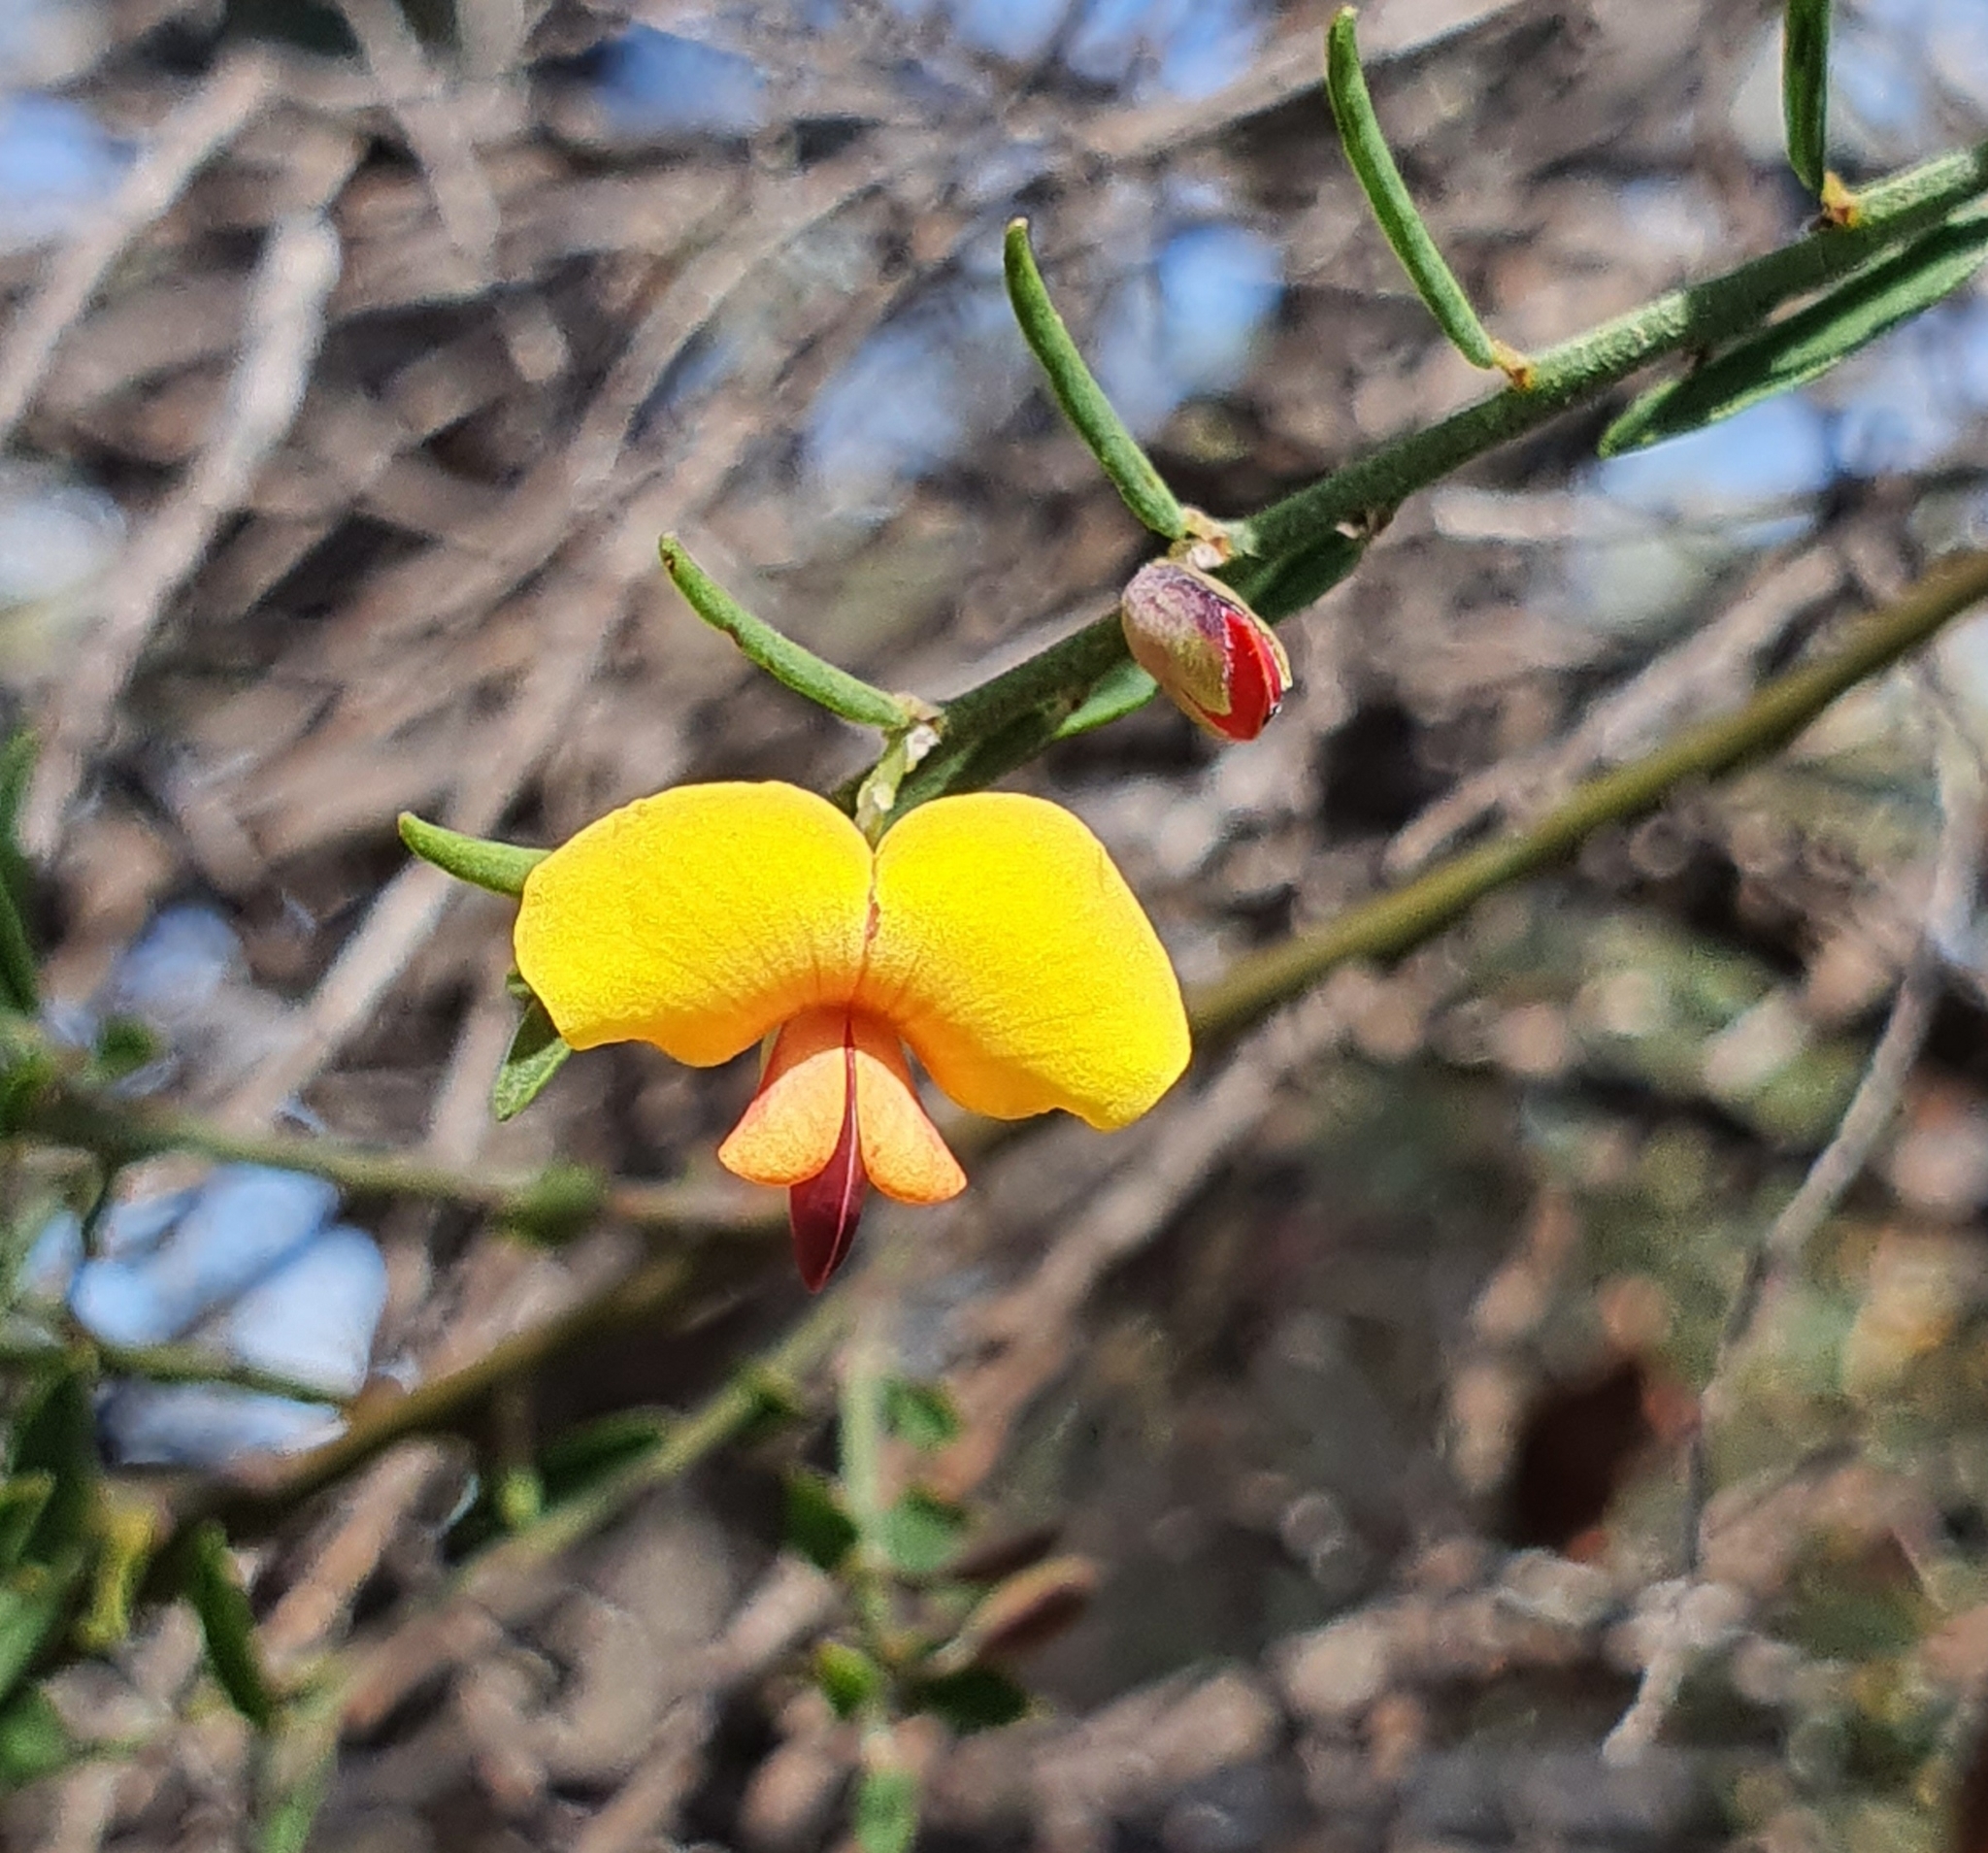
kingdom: Plantae
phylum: Tracheophyta
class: Magnoliopsida
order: Fabales
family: Fabaceae
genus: Bossiaea
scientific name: Bossiaea heterophylla
